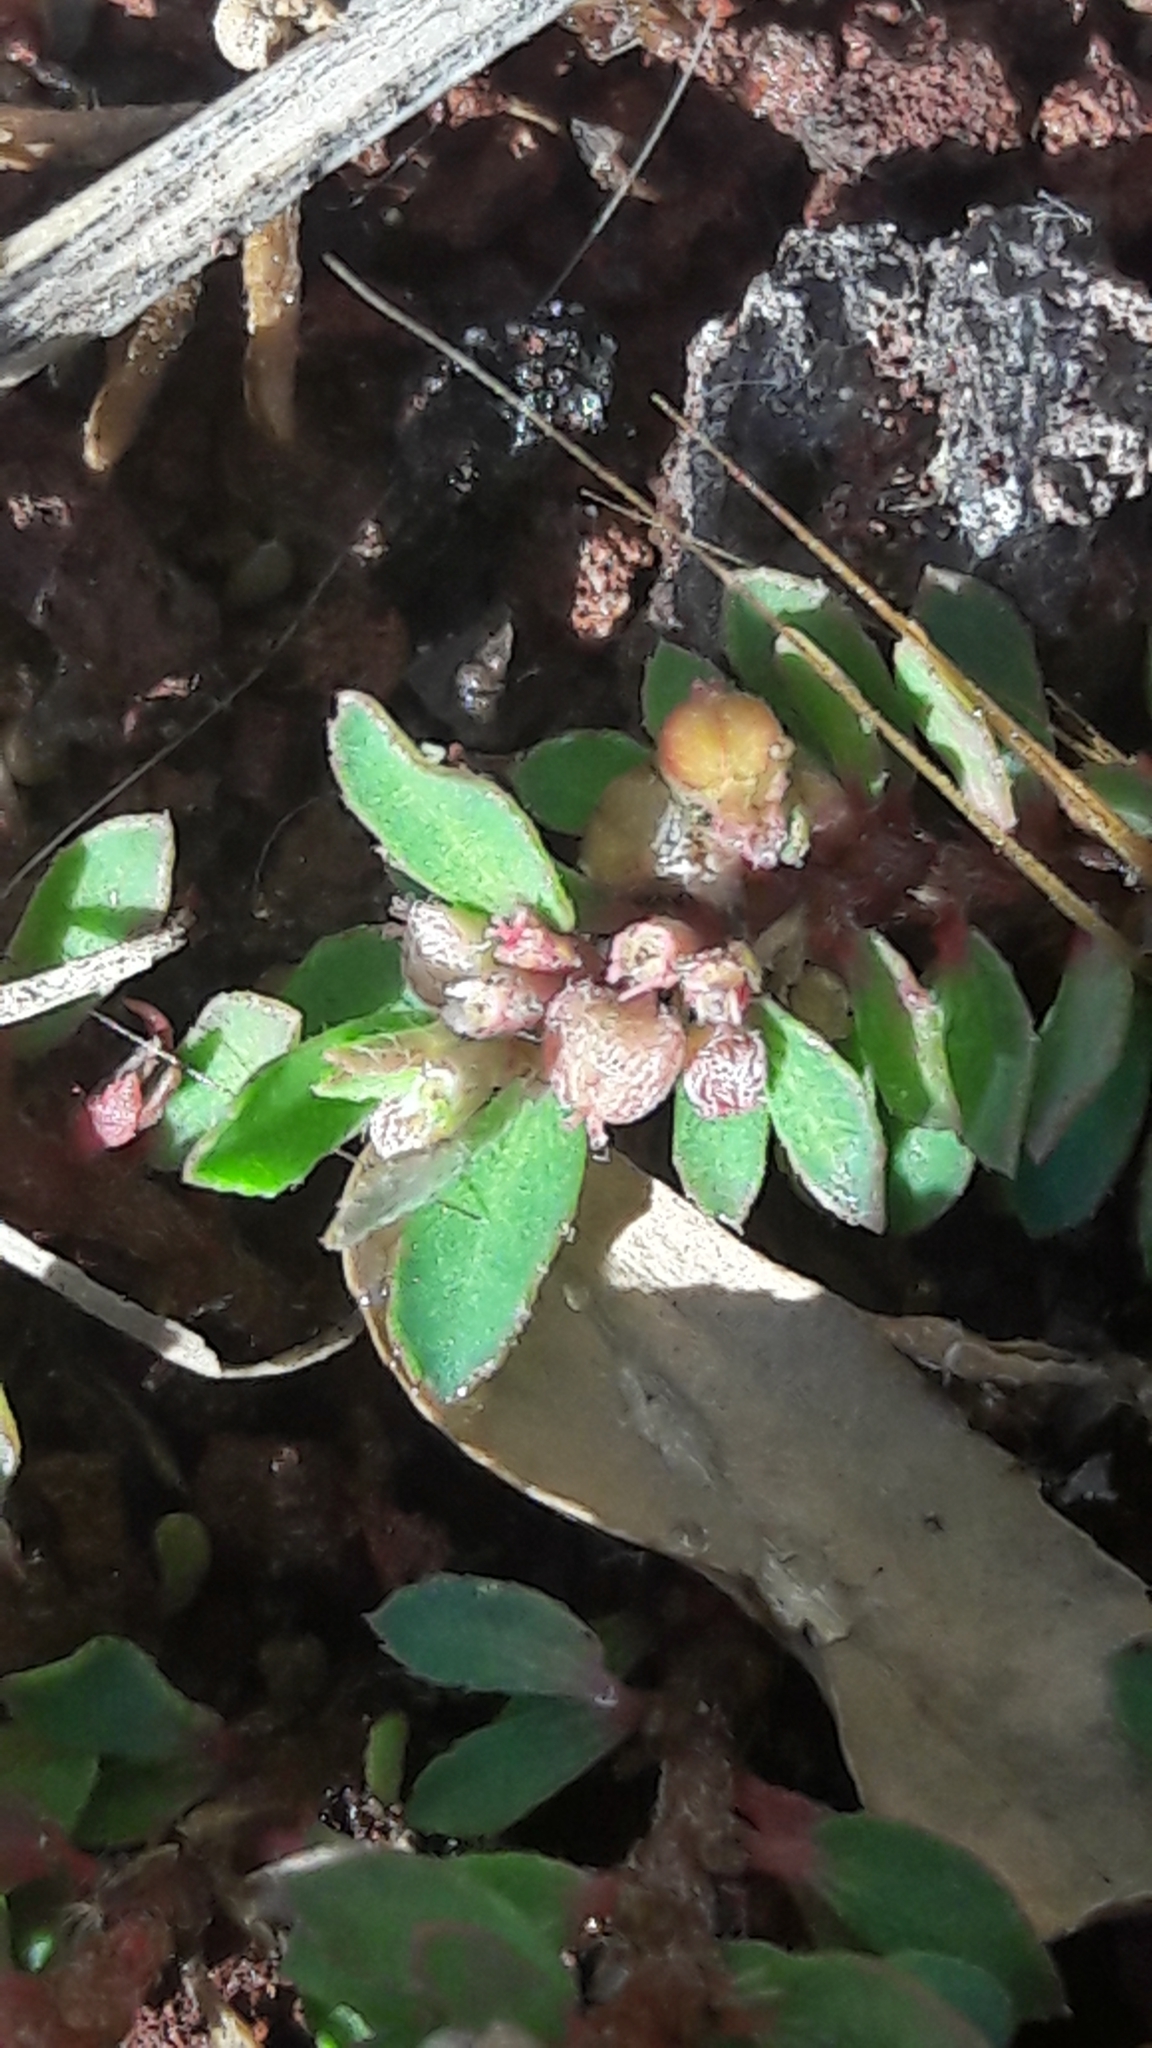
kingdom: Plantae
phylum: Tracheophyta
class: Magnoliopsida
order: Malpighiales
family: Euphorbiaceae
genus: Euphorbia
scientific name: Euphorbia maculata
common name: Spotted spurge
